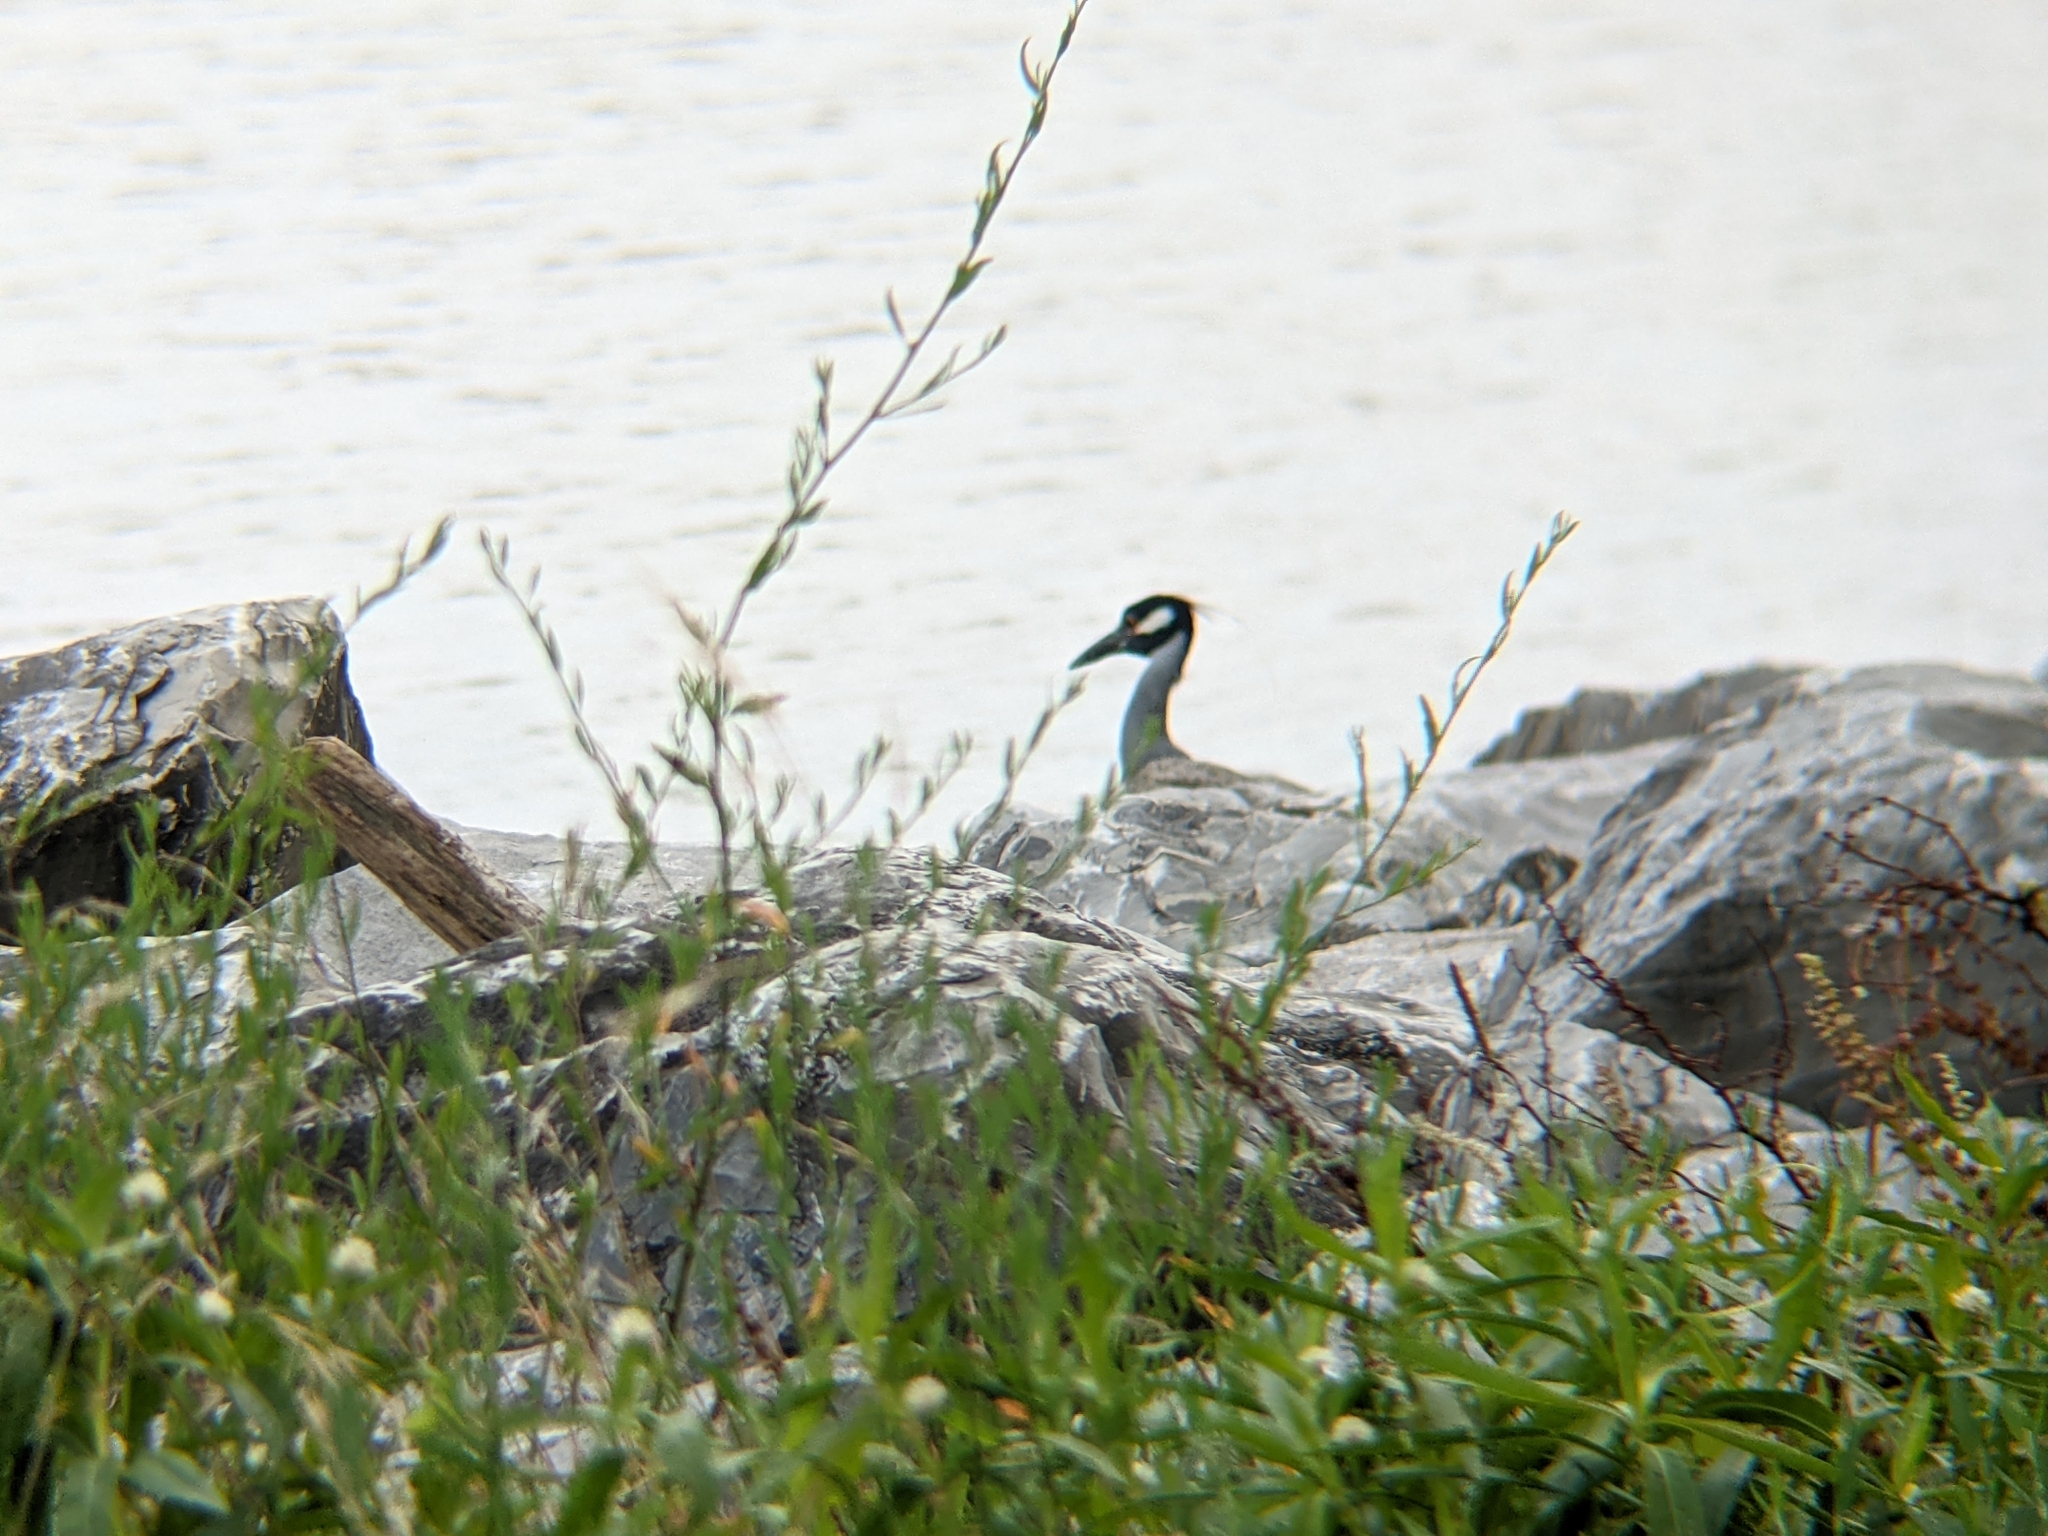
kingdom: Animalia
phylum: Chordata
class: Aves
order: Pelecaniformes
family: Ardeidae
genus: Nyctanassa
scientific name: Nyctanassa violacea
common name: Yellow-crowned night heron
